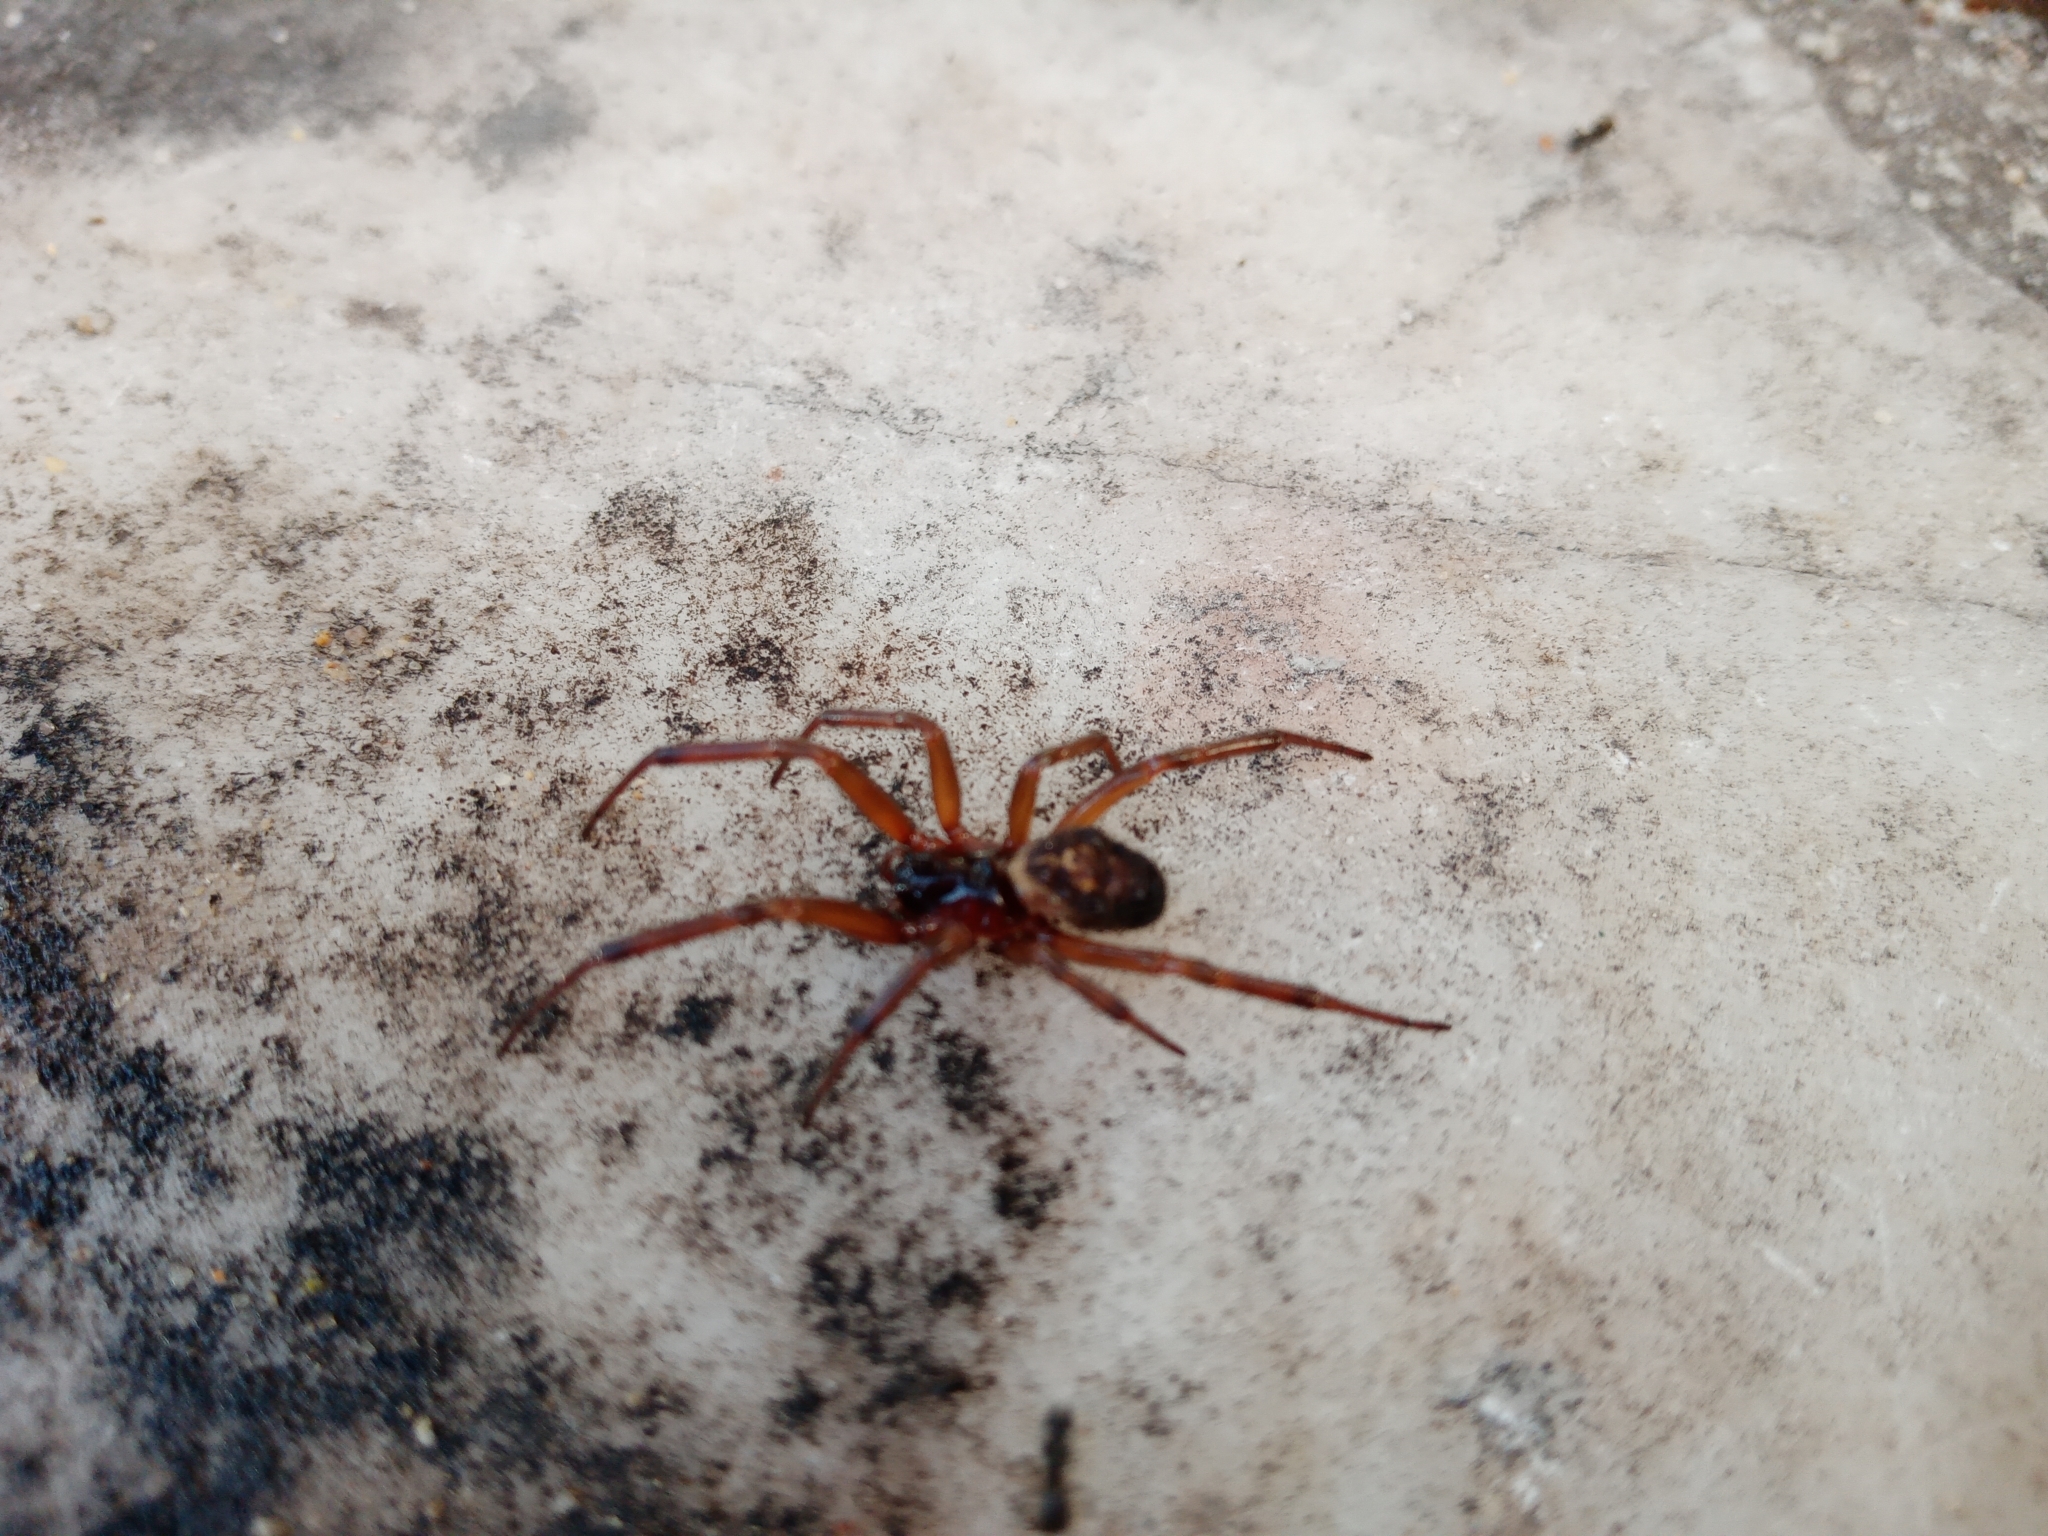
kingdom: Animalia
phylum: Arthropoda
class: Arachnida
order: Araneae
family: Theridiidae
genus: Steatoda
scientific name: Steatoda nobilis
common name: Cobweb weaver
